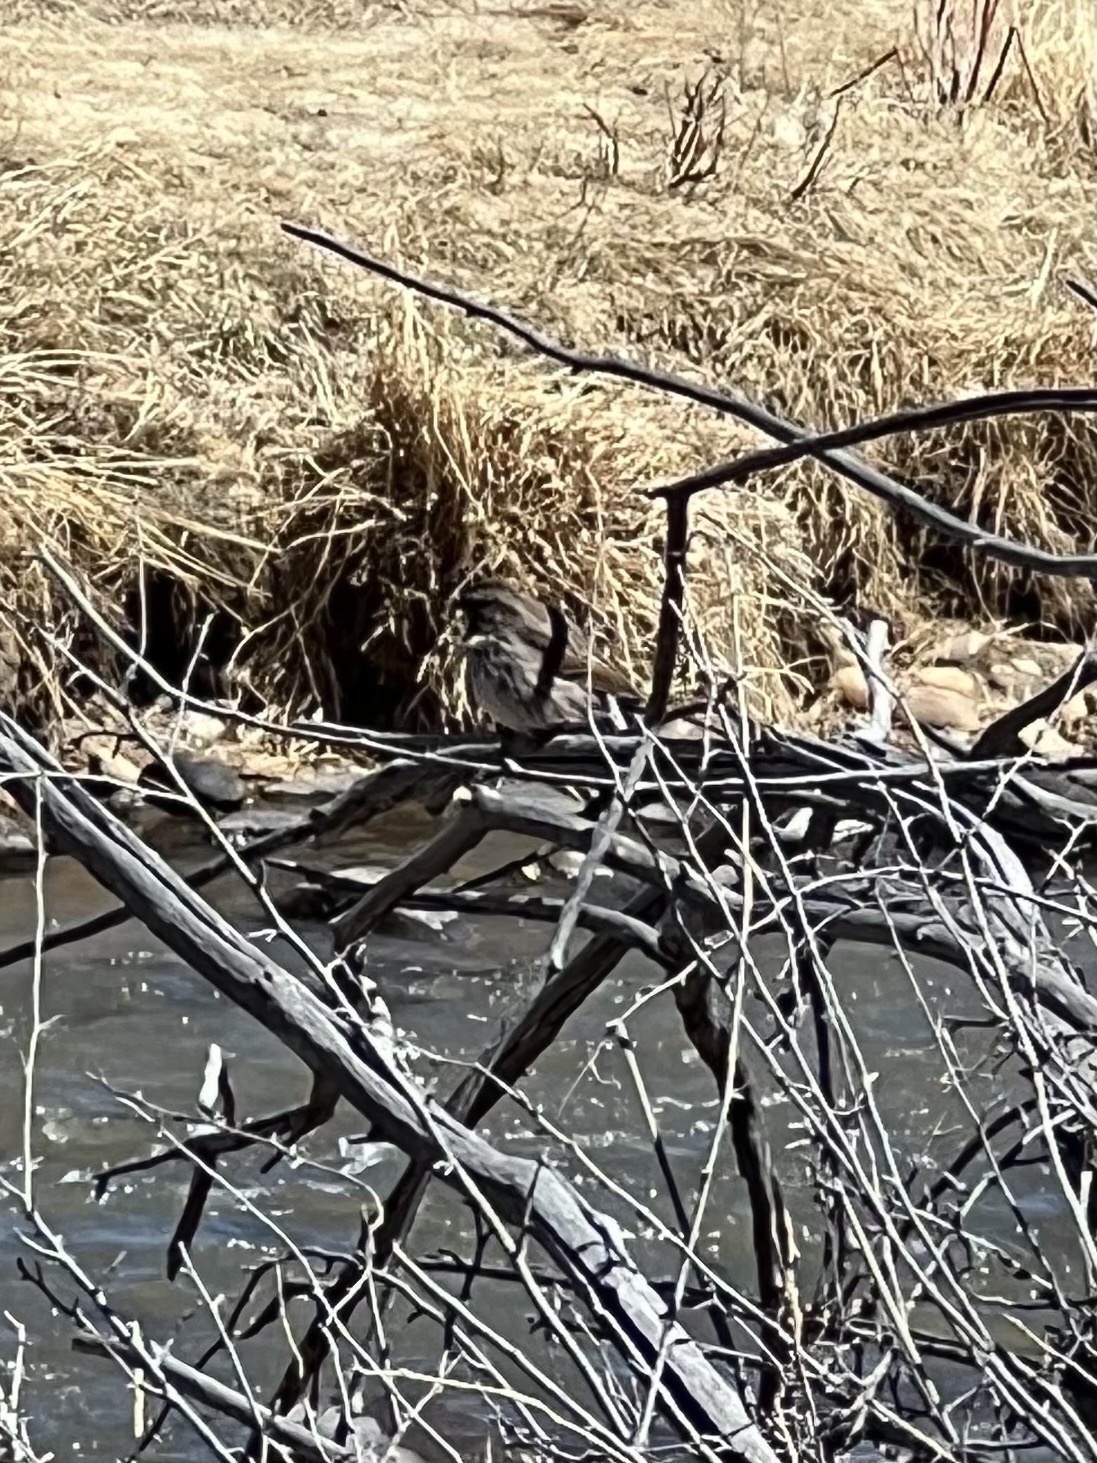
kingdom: Animalia
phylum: Chordata
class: Aves
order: Passeriformes
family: Passerellidae
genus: Melospiza
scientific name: Melospiza melodia
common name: Song sparrow
